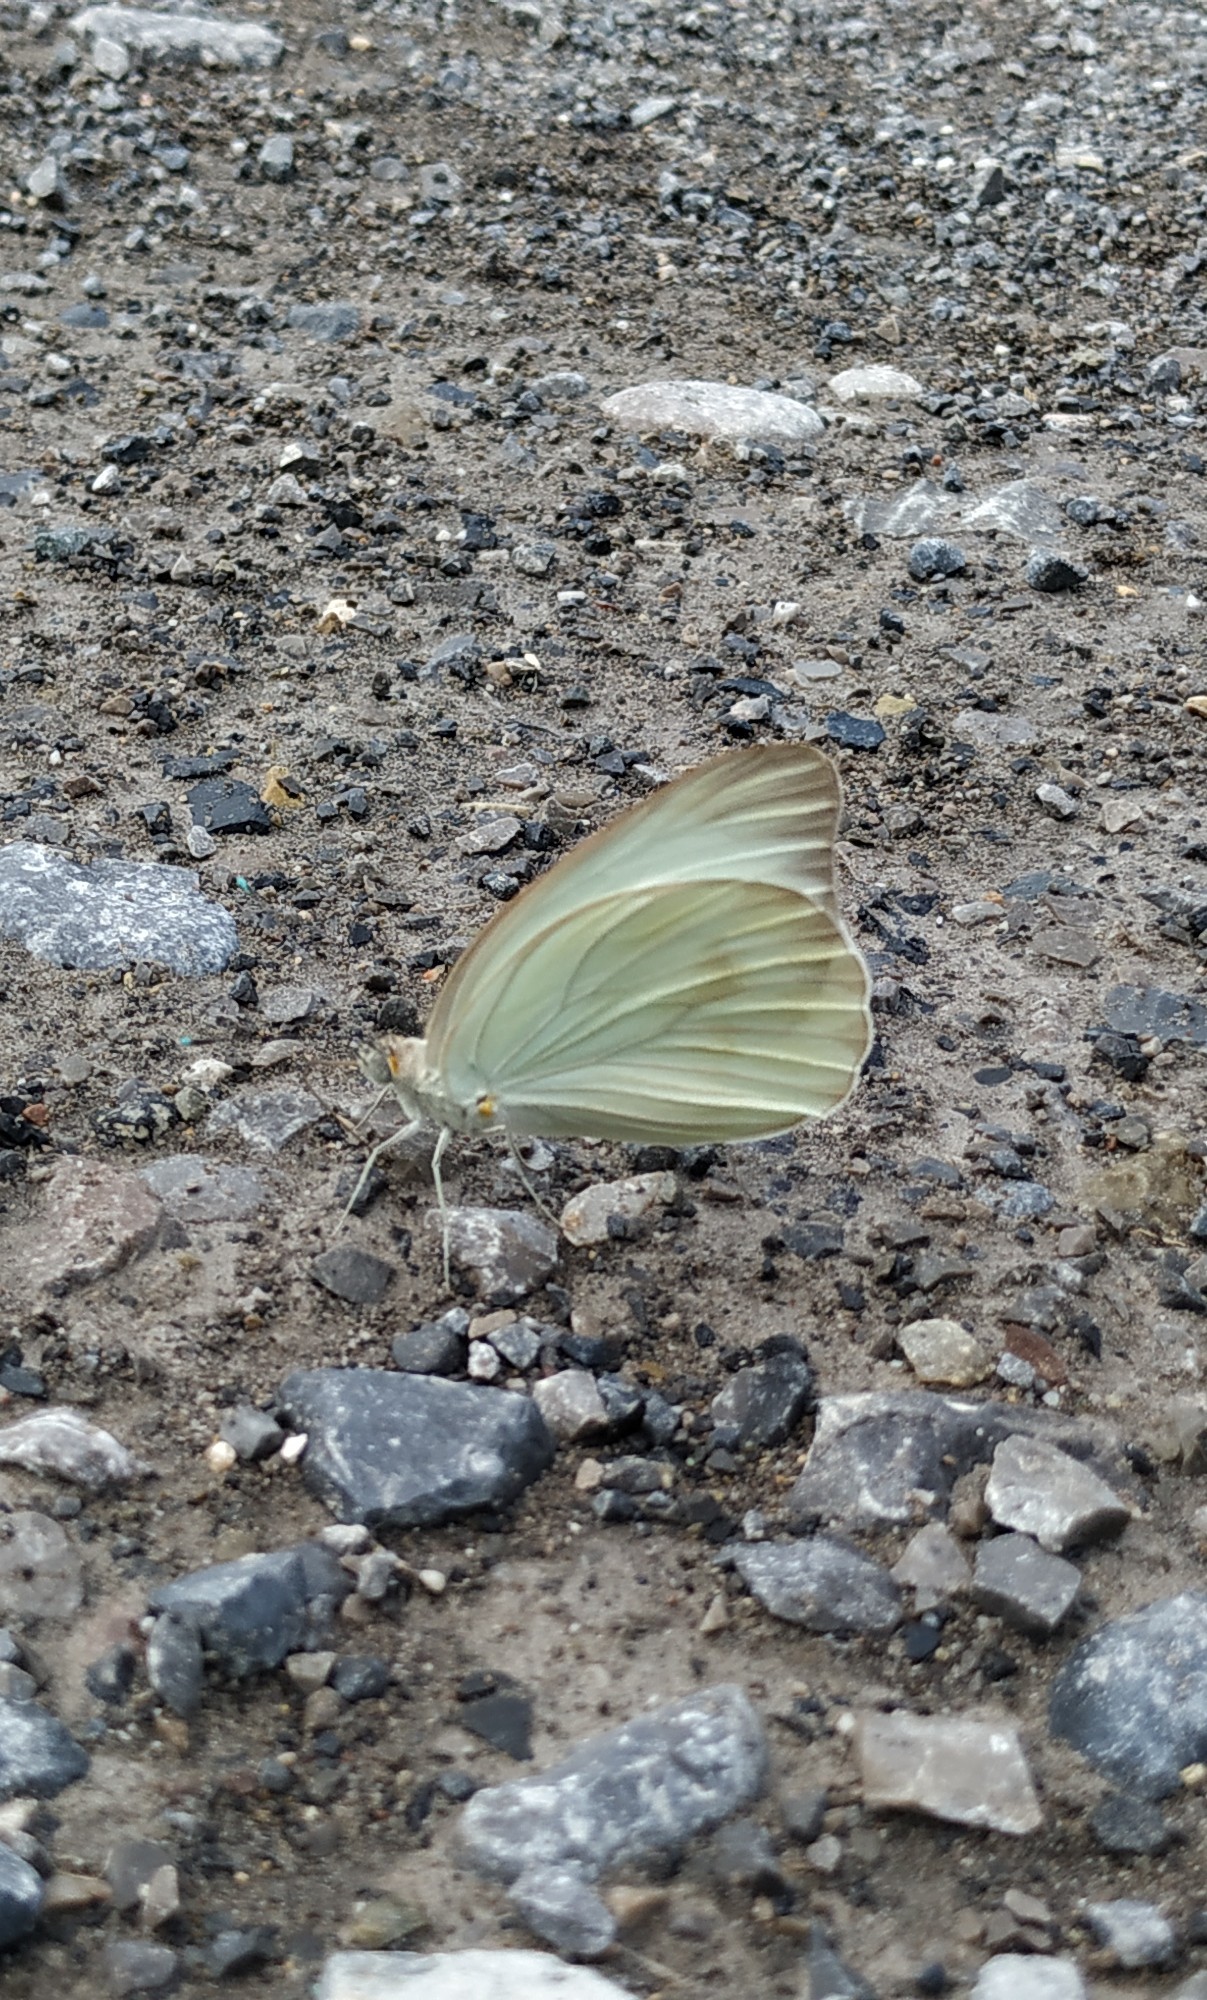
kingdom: Animalia
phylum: Arthropoda
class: Insecta
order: Lepidoptera
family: Pieridae
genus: Ascia
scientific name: Ascia monuste
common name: Great southern white
